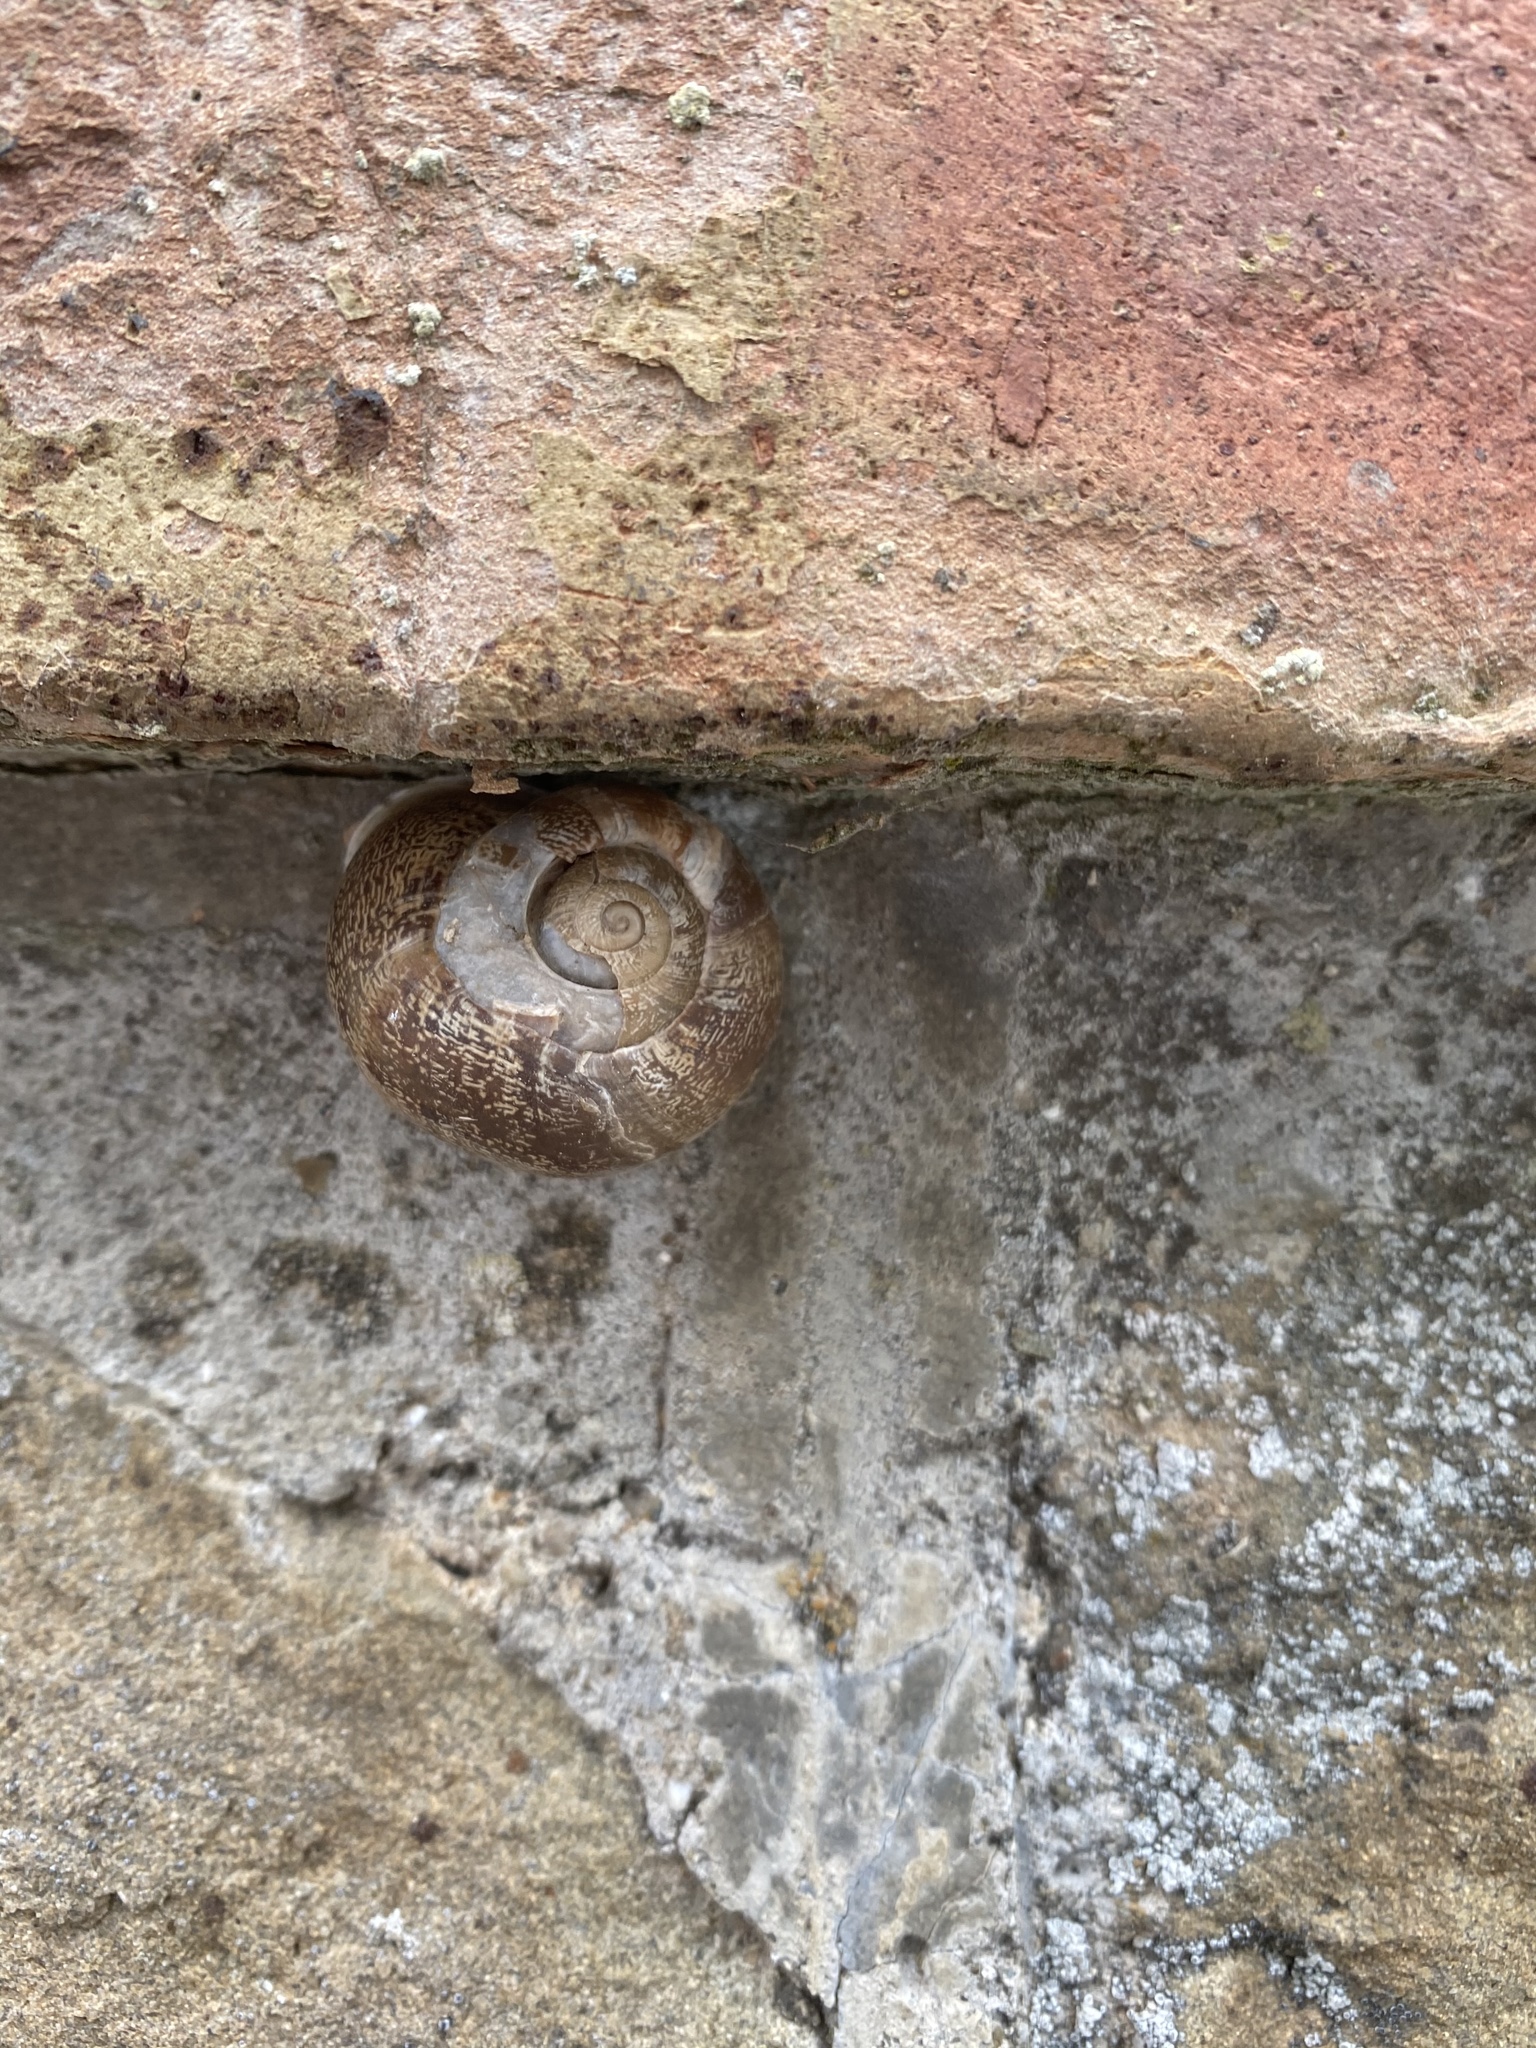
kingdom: Animalia
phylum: Mollusca
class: Gastropoda
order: Stylommatophora
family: Helicidae
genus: Eobania
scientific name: Eobania vermiculata
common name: Chocolateband snail
